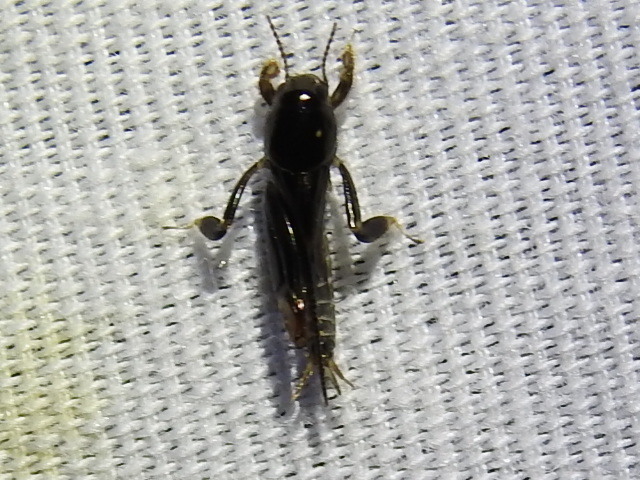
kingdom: Animalia
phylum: Arthropoda
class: Insecta
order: Orthoptera
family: Tridactylidae
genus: Neotridactylus
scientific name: Neotridactylus apicialis
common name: Larger pygmy locust
